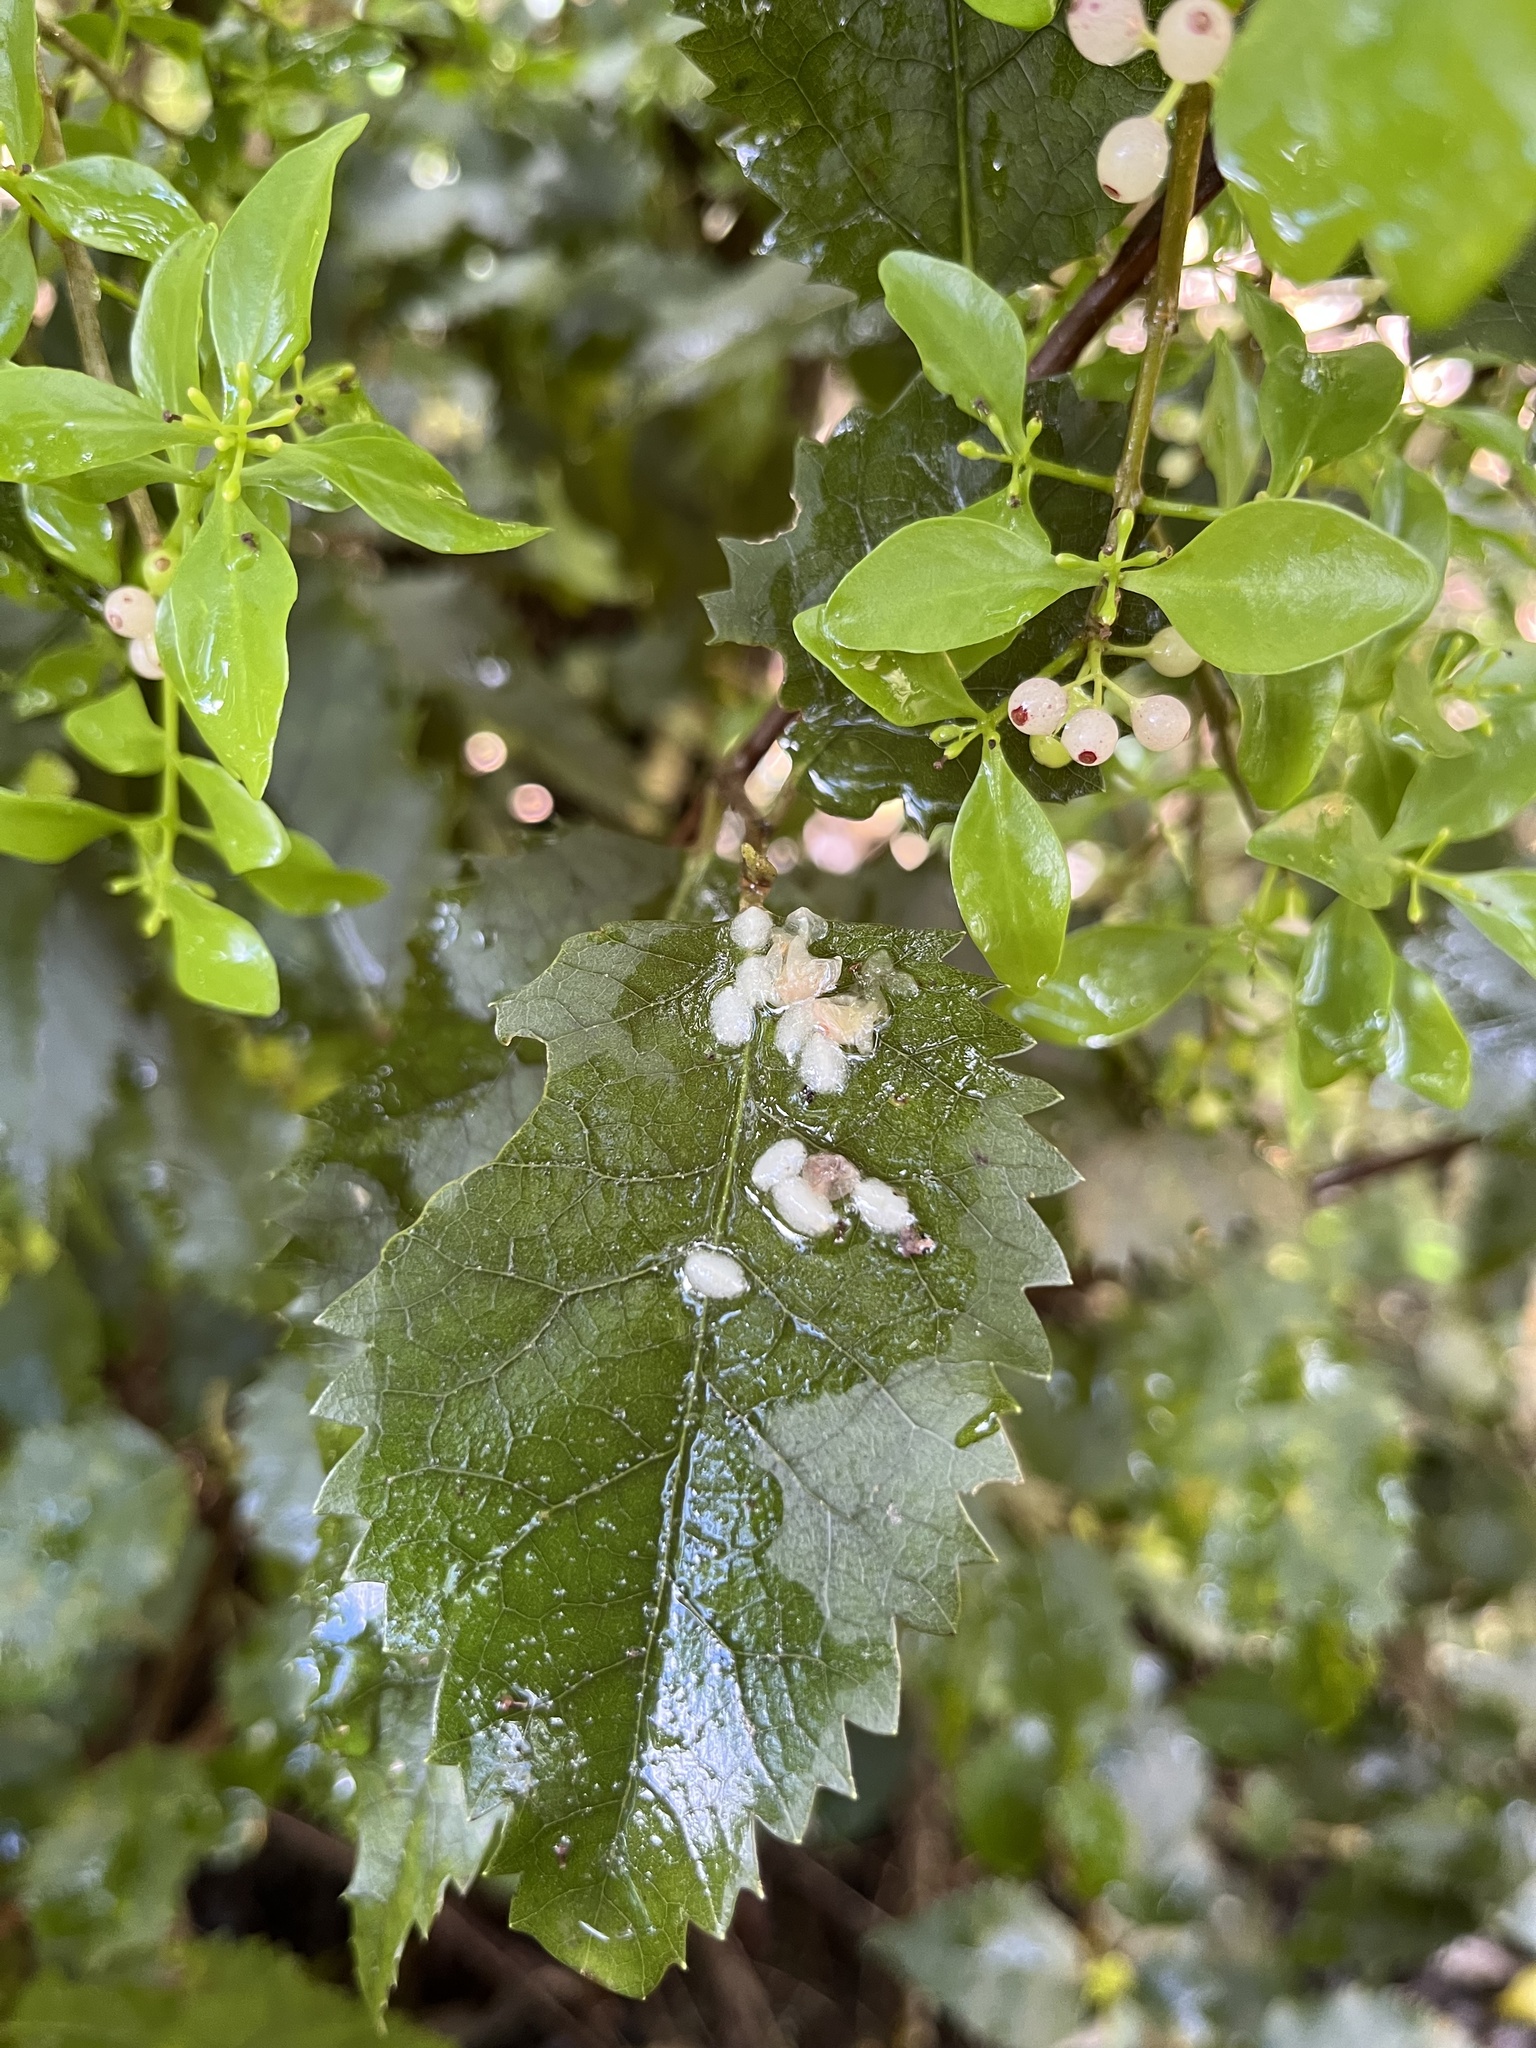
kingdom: Plantae
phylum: Tracheophyta
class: Magnoliopsida
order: Santalales
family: Loranthaceae
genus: Tupeia
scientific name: Tupeia antarctica
